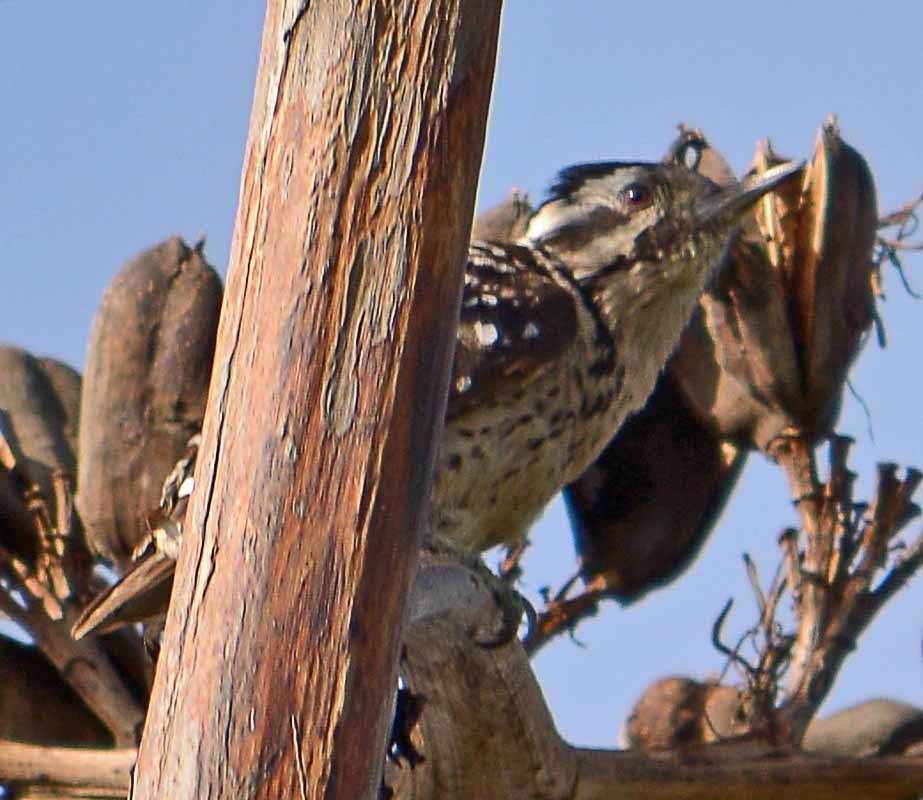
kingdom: Animalia
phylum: Chordata
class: Aves
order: Piciformes
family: Picidae
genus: Dryobates
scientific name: Dryobates scalaris
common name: Ladder-backed woodpecker
